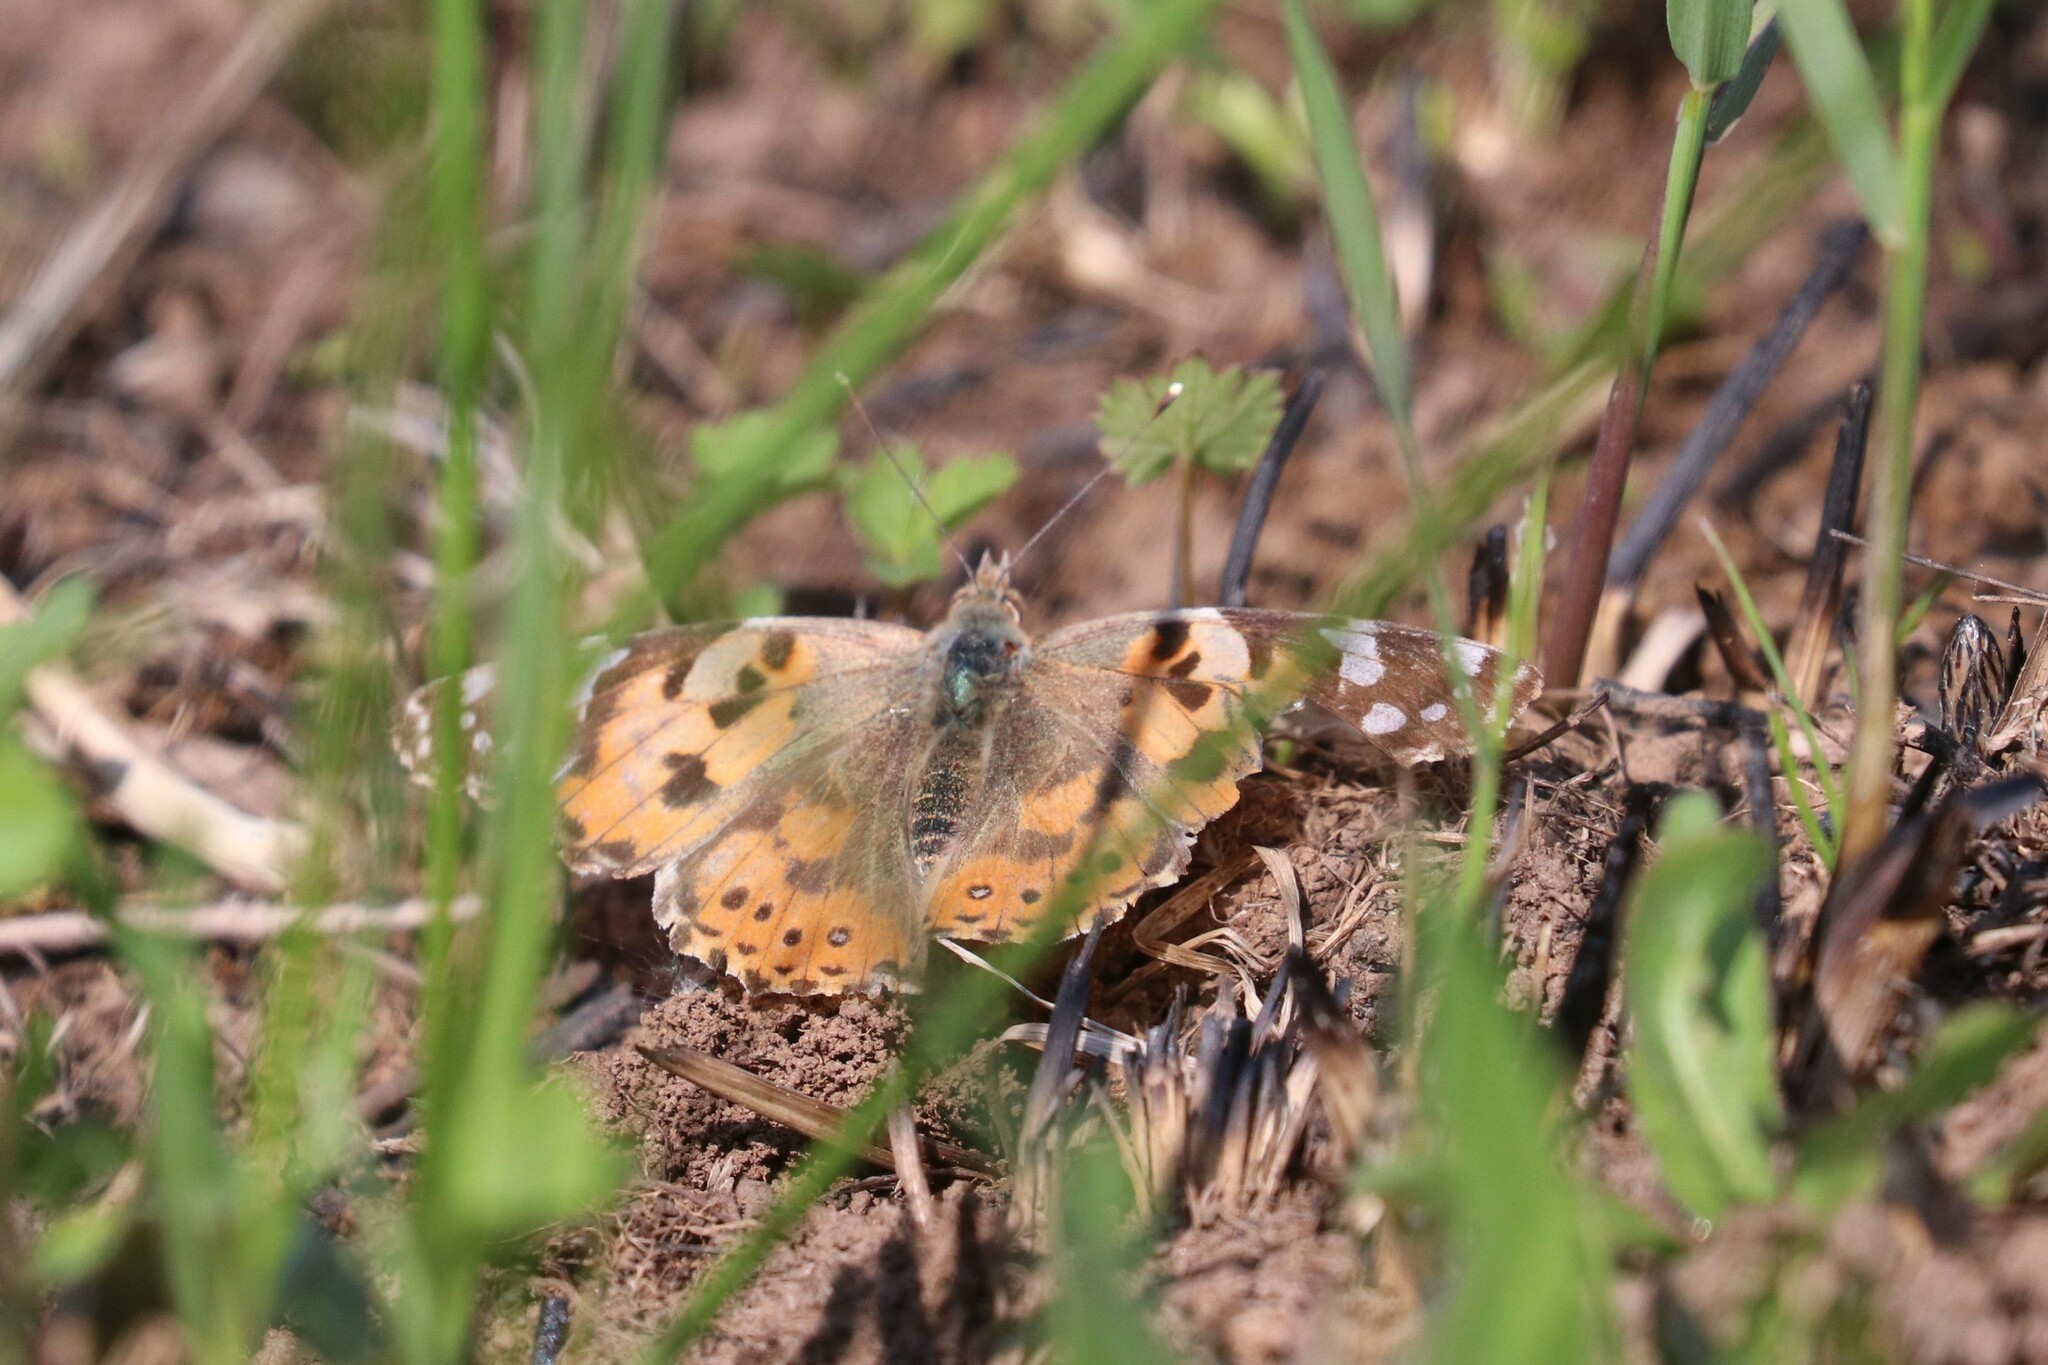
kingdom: Animalia
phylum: Arthropoda
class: Insecta
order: Lepidoptera
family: Nymphalidae
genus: Vanessa
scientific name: Vanessa cardui
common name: Painted lady
